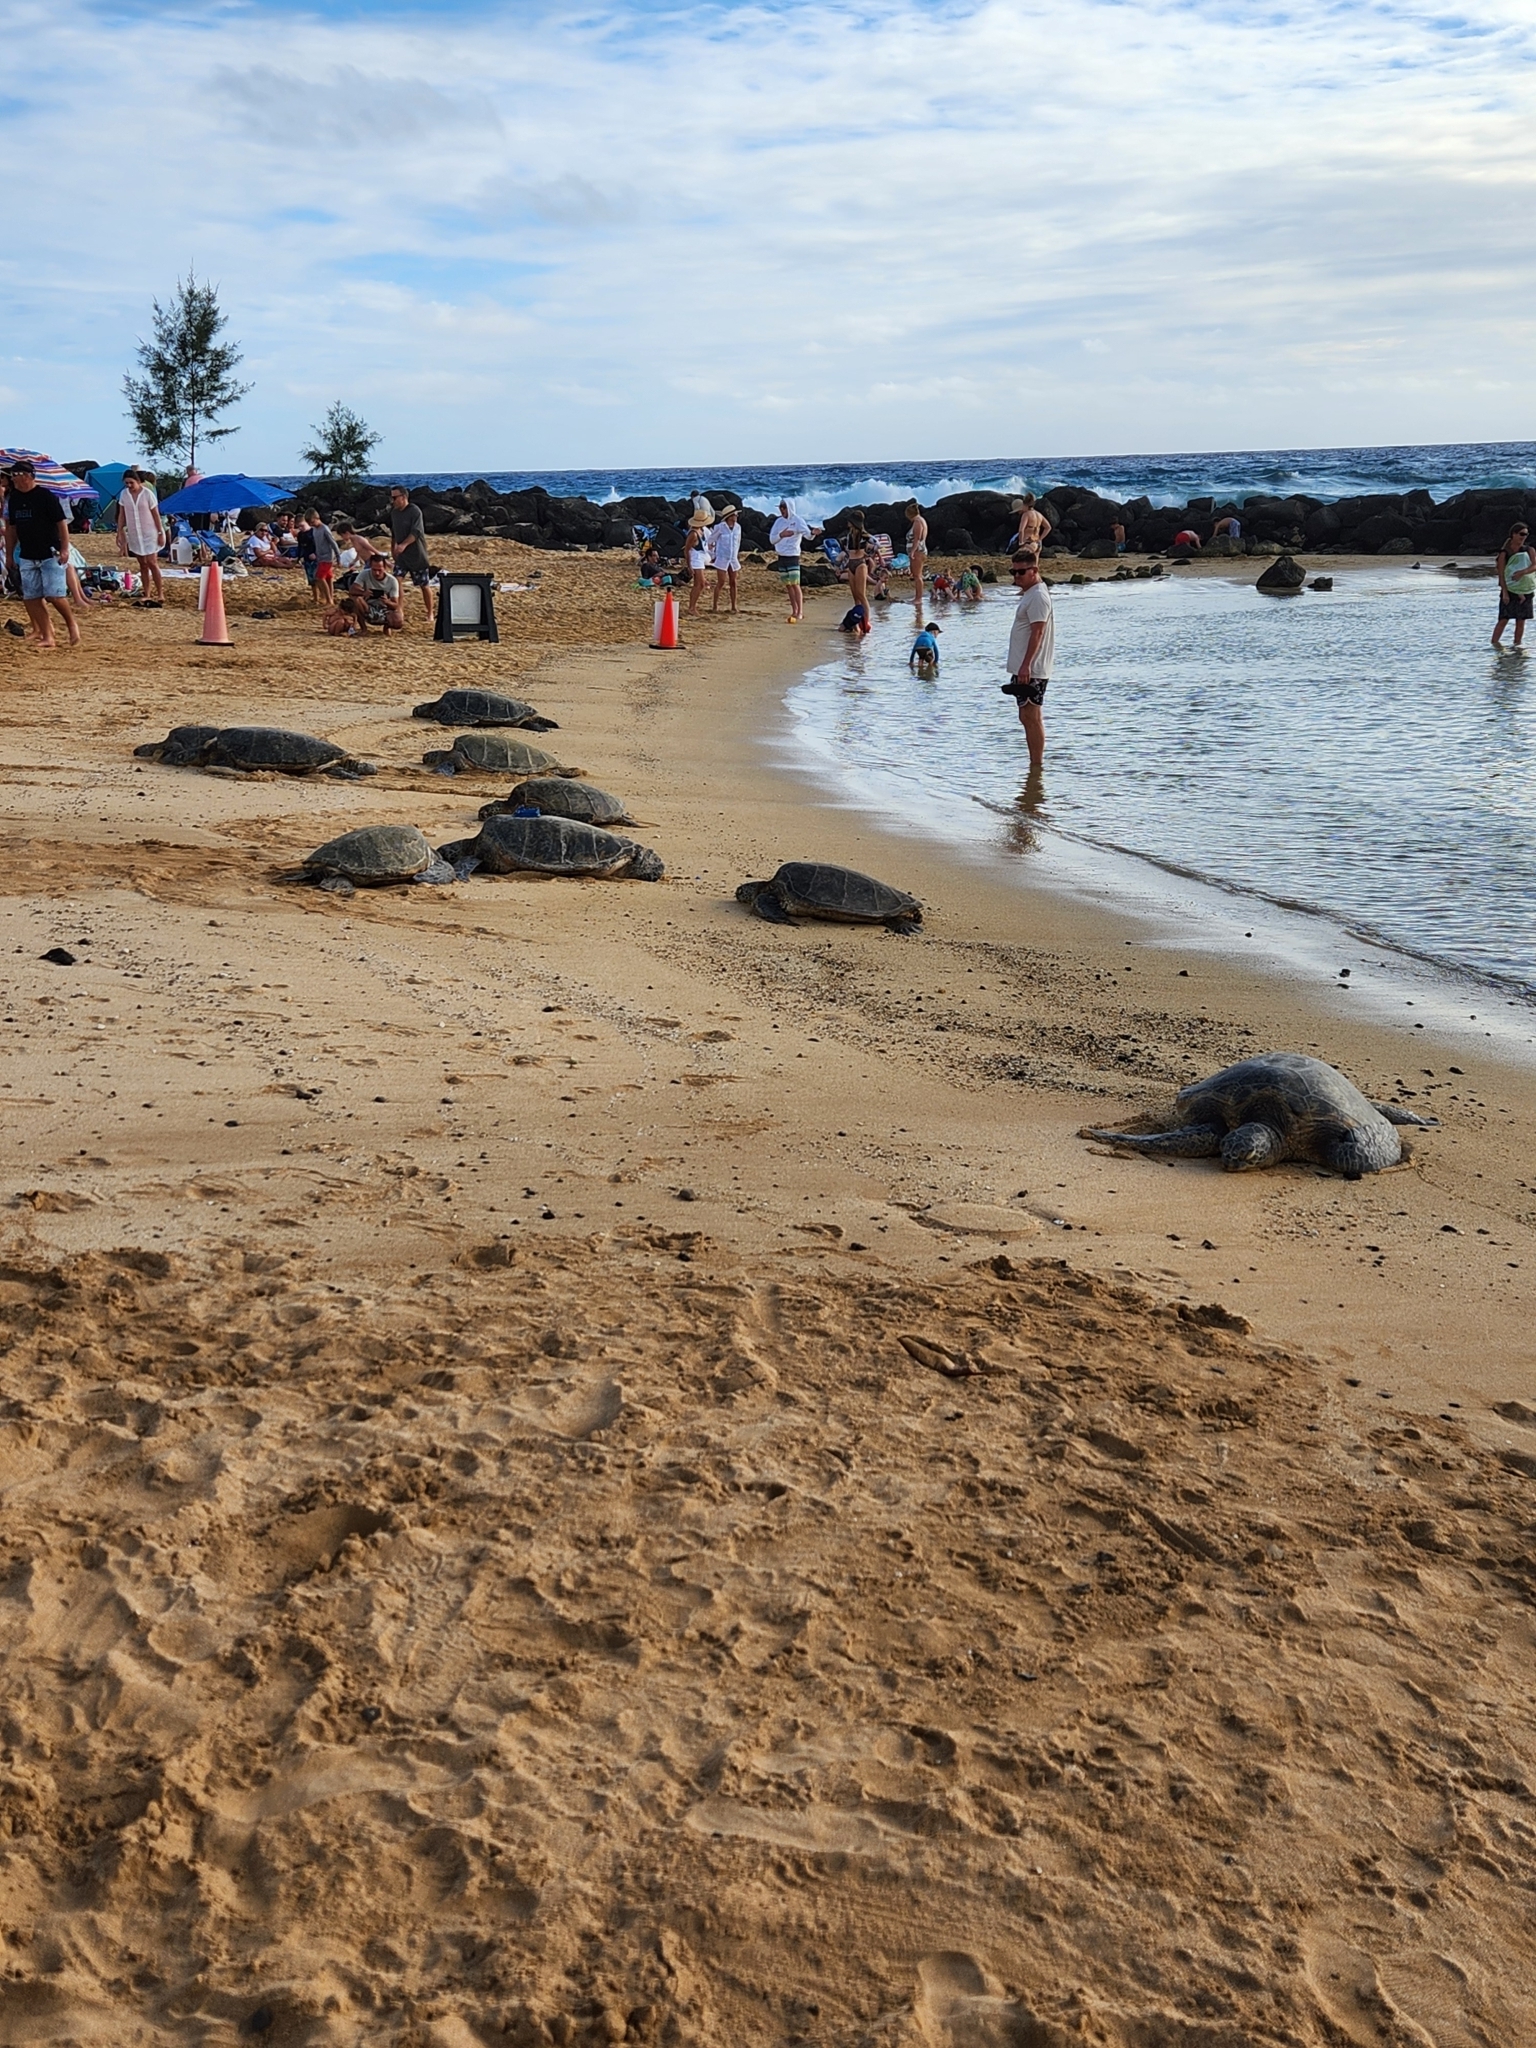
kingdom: Animalia
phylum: Chordata
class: Testudines
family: Cheloniidae
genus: Chelonia
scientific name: Chelonia mydas
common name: Green turtle
